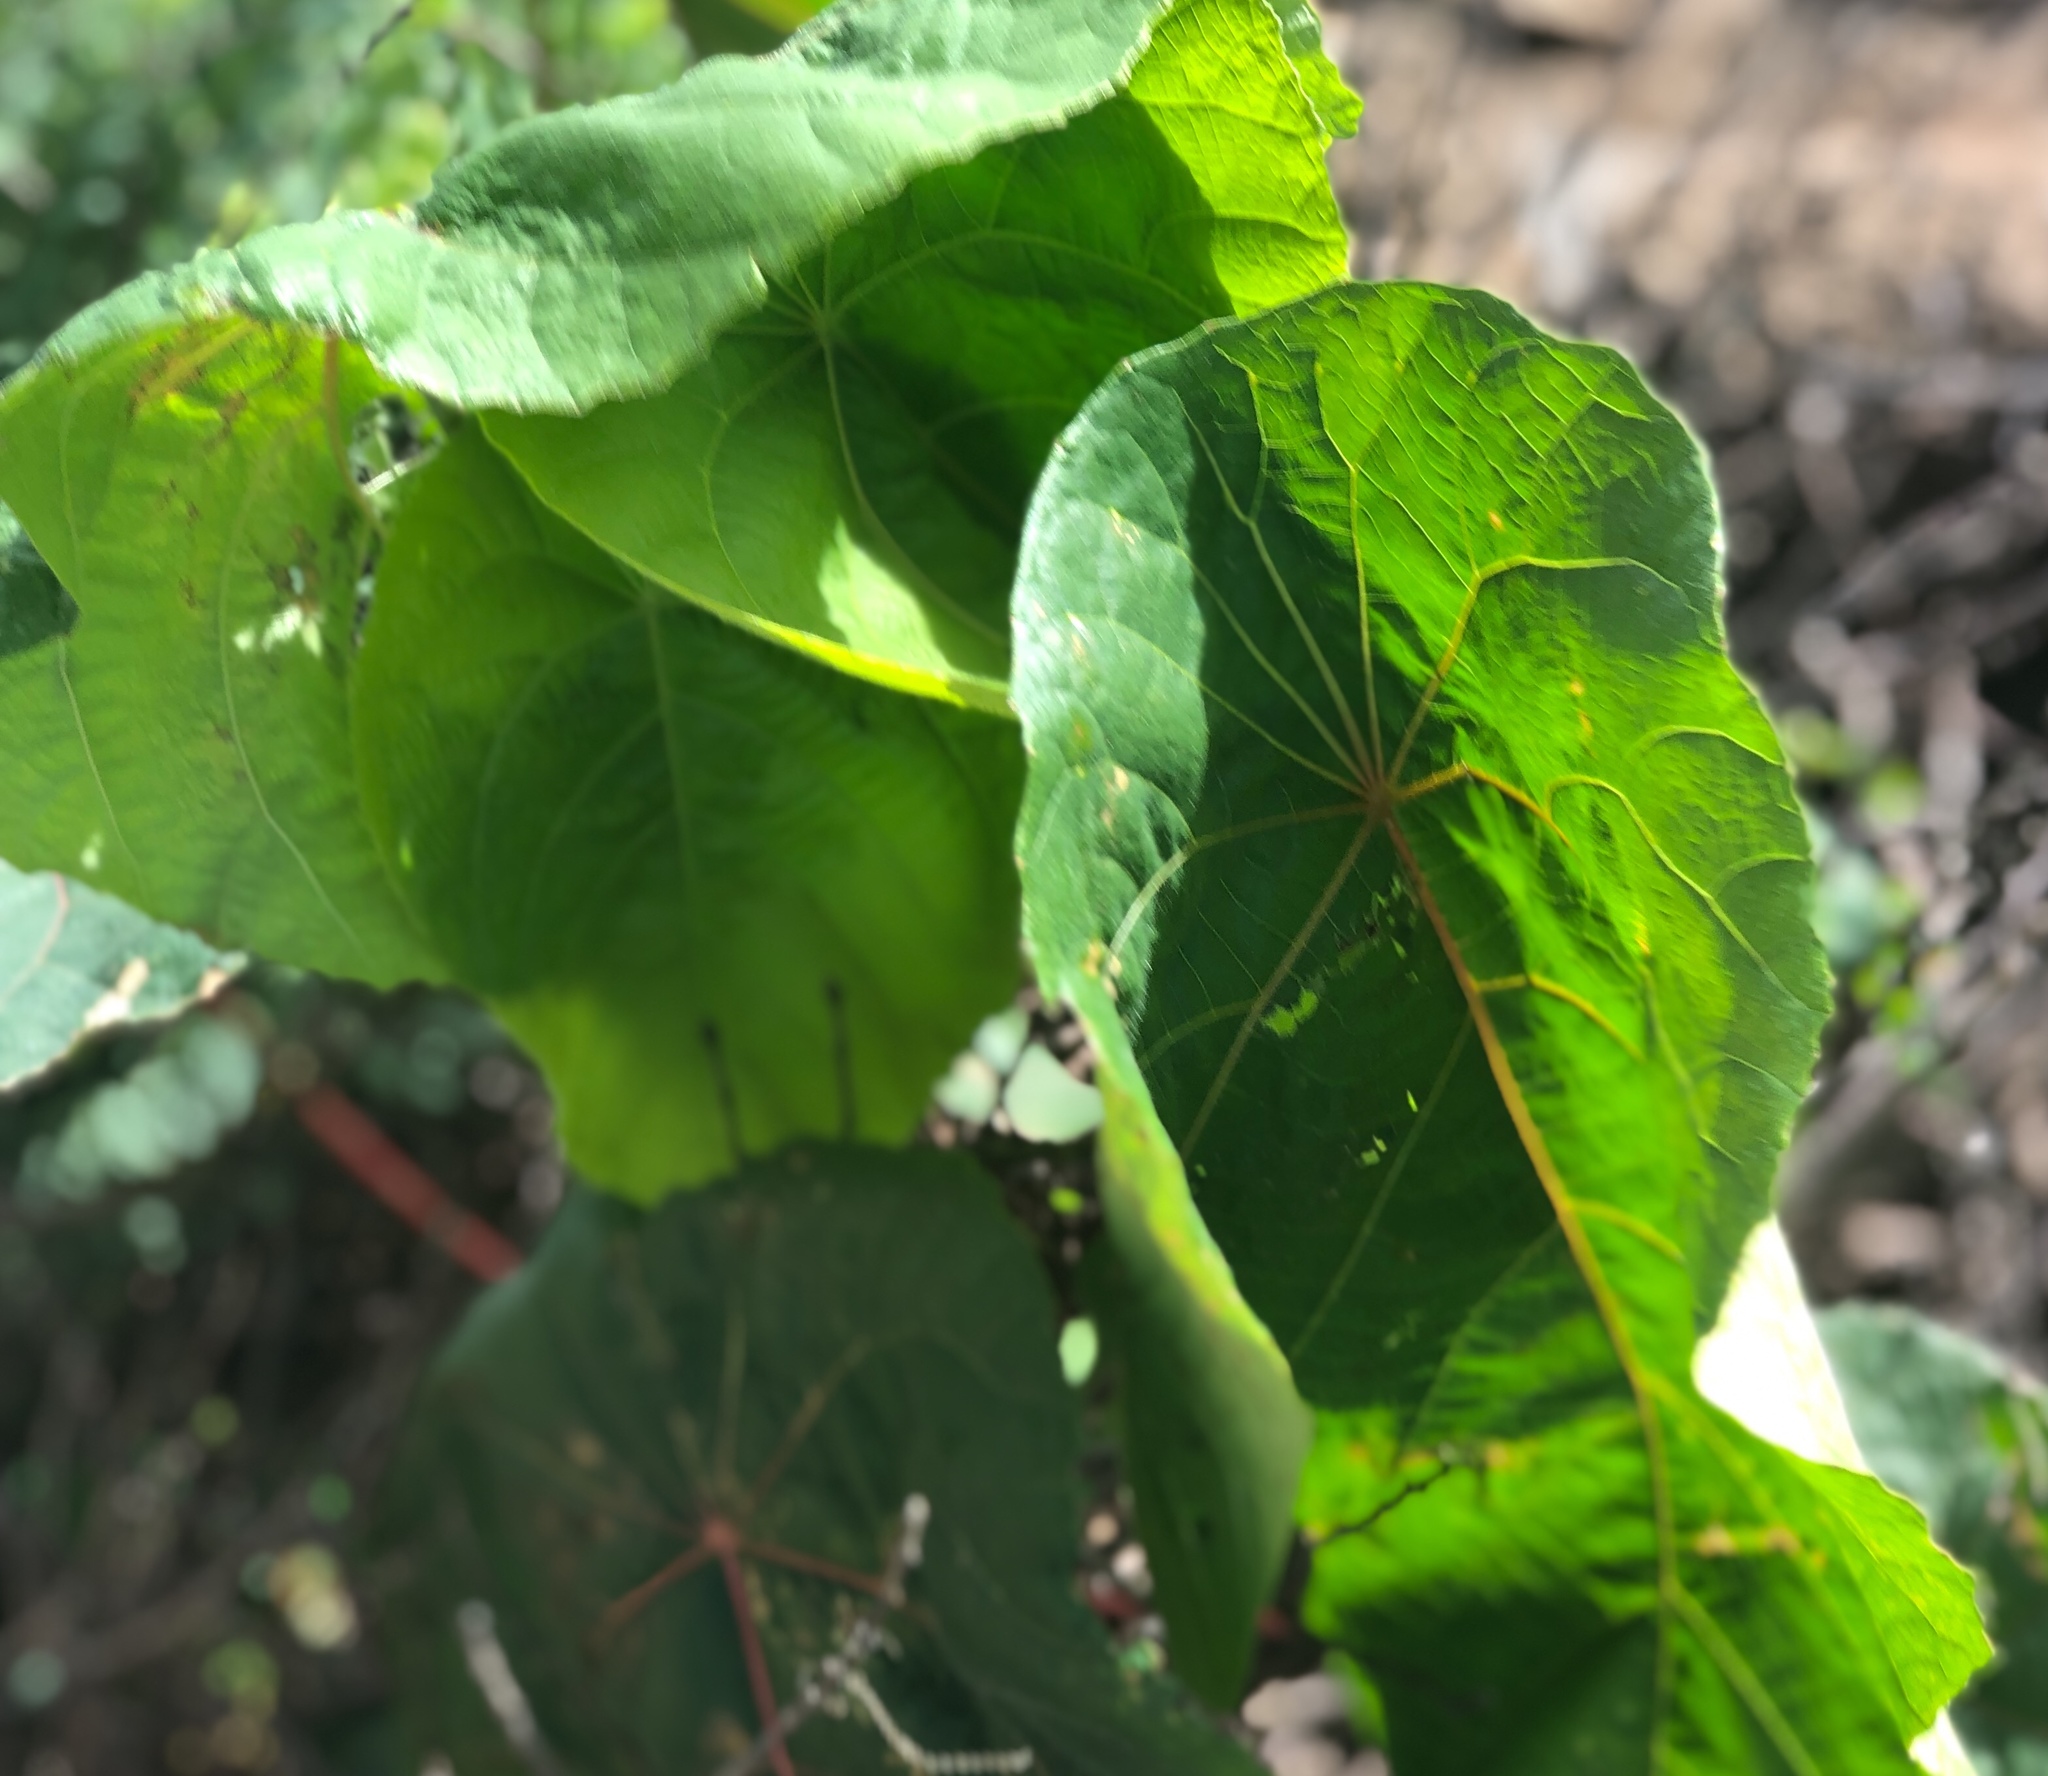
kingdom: Plantae
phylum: Tracheophyta
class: Magnoliopsida
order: Malpighiales
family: Euphorbiaceae
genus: Macaranga
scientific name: Macaranga tanarius
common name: Parasol leaf tree
